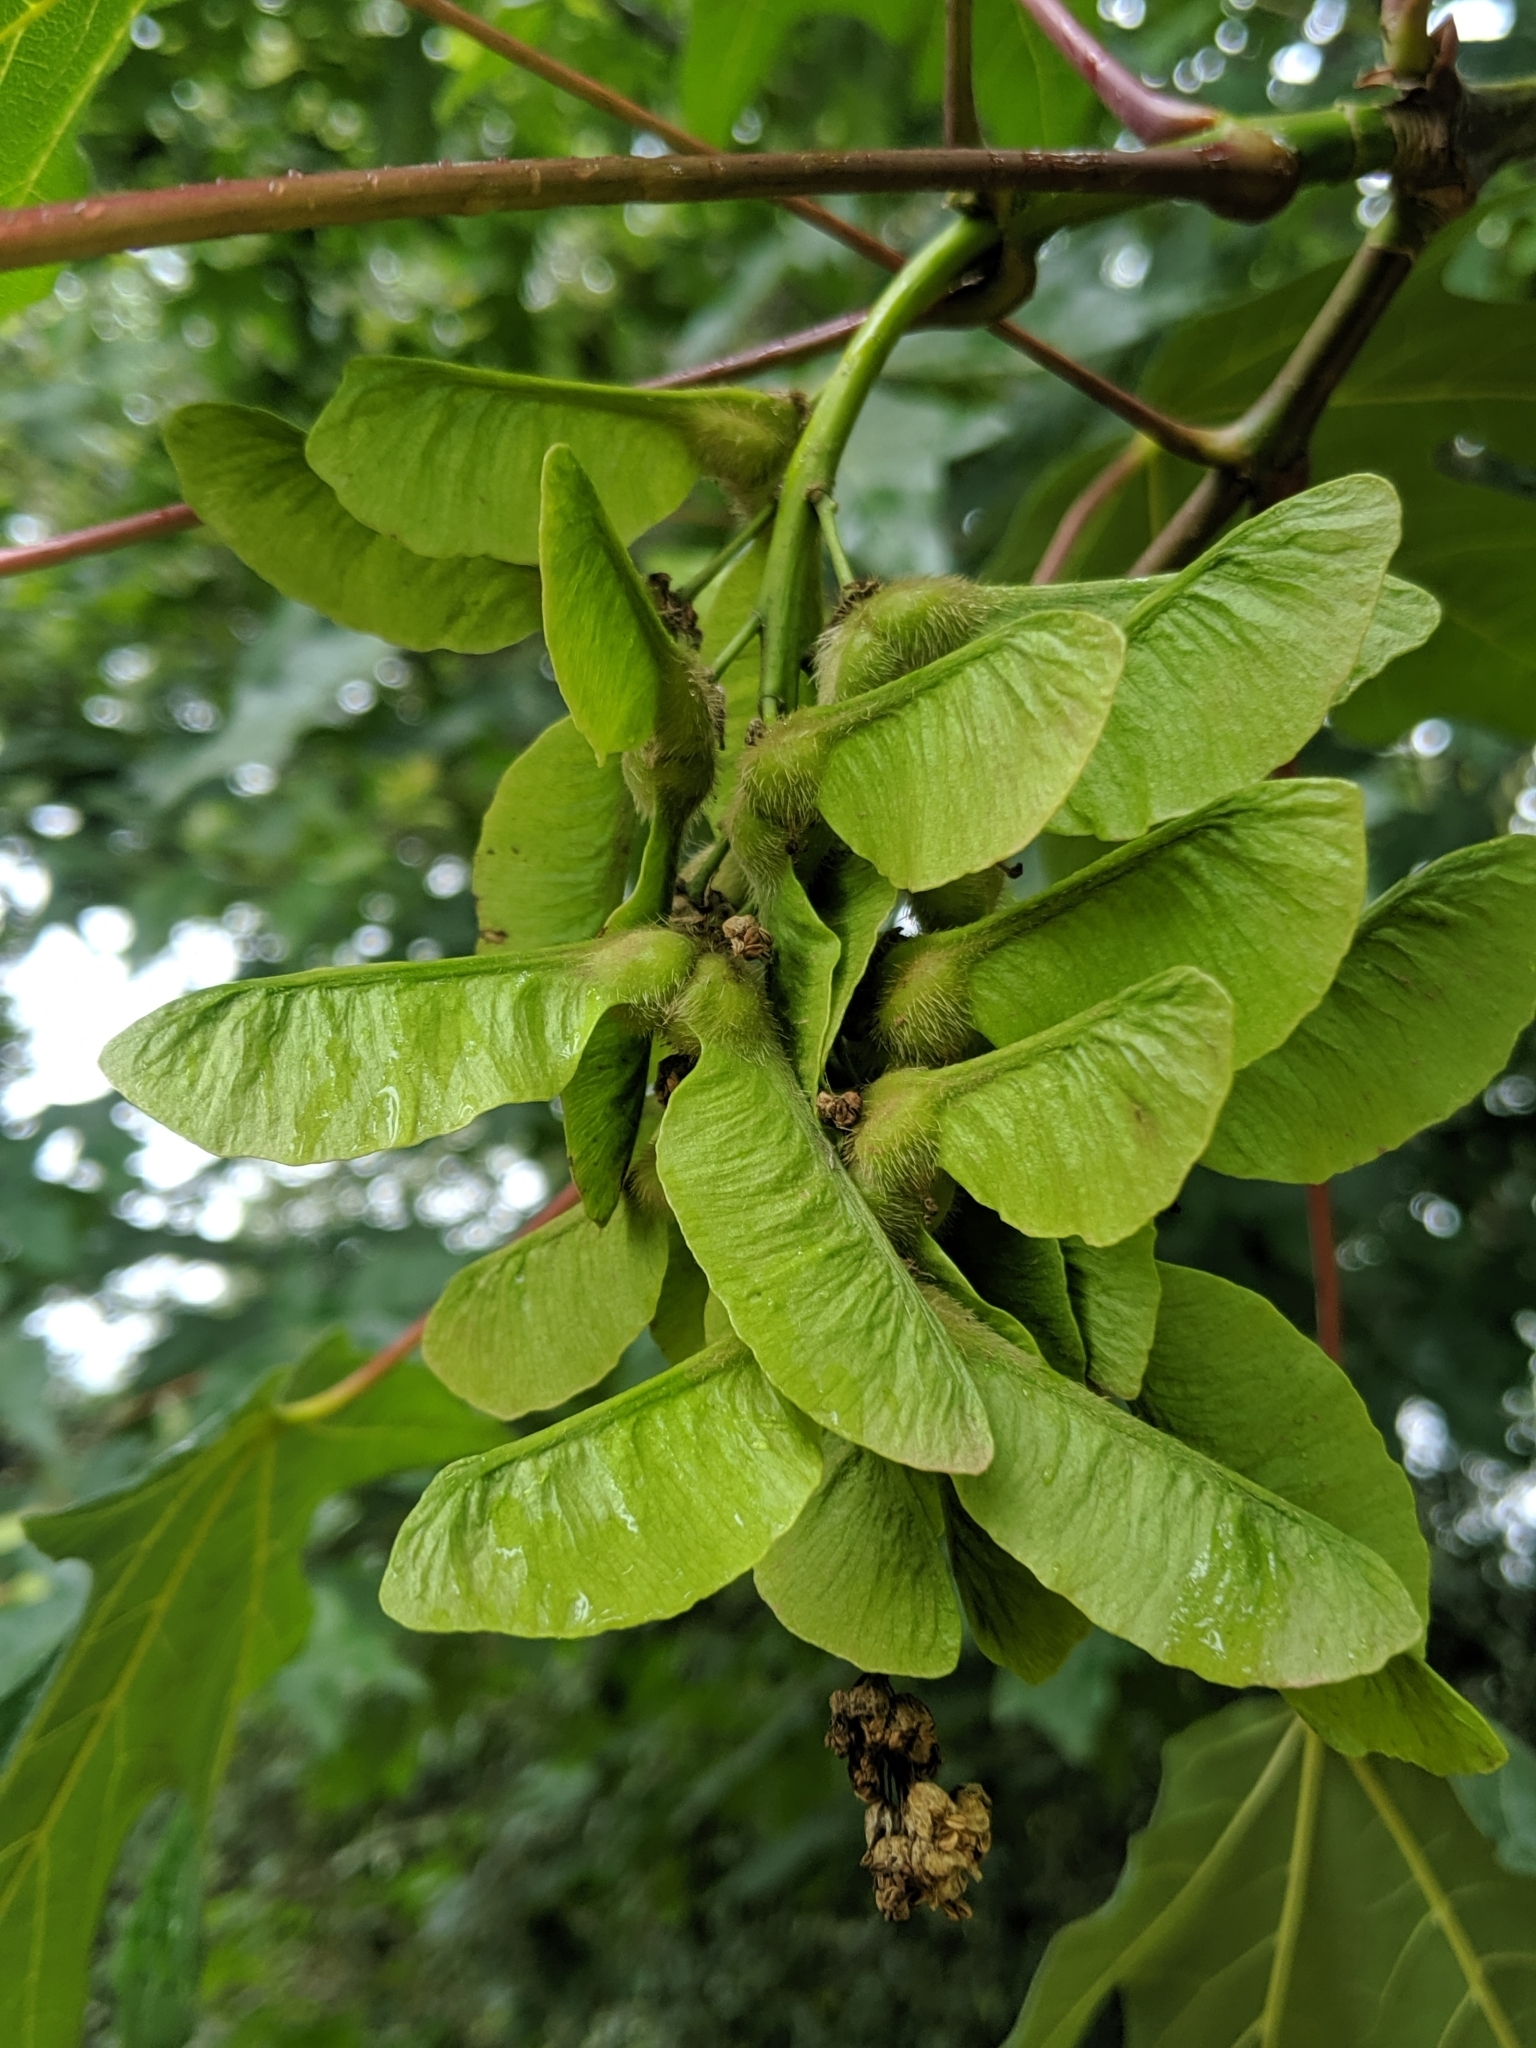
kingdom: Plantae
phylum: Tracheophyta
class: Magnoliopsida
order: Sapindales
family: Sapindaceae
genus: Acer
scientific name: Acer macrophyllum
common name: Oregon maple
